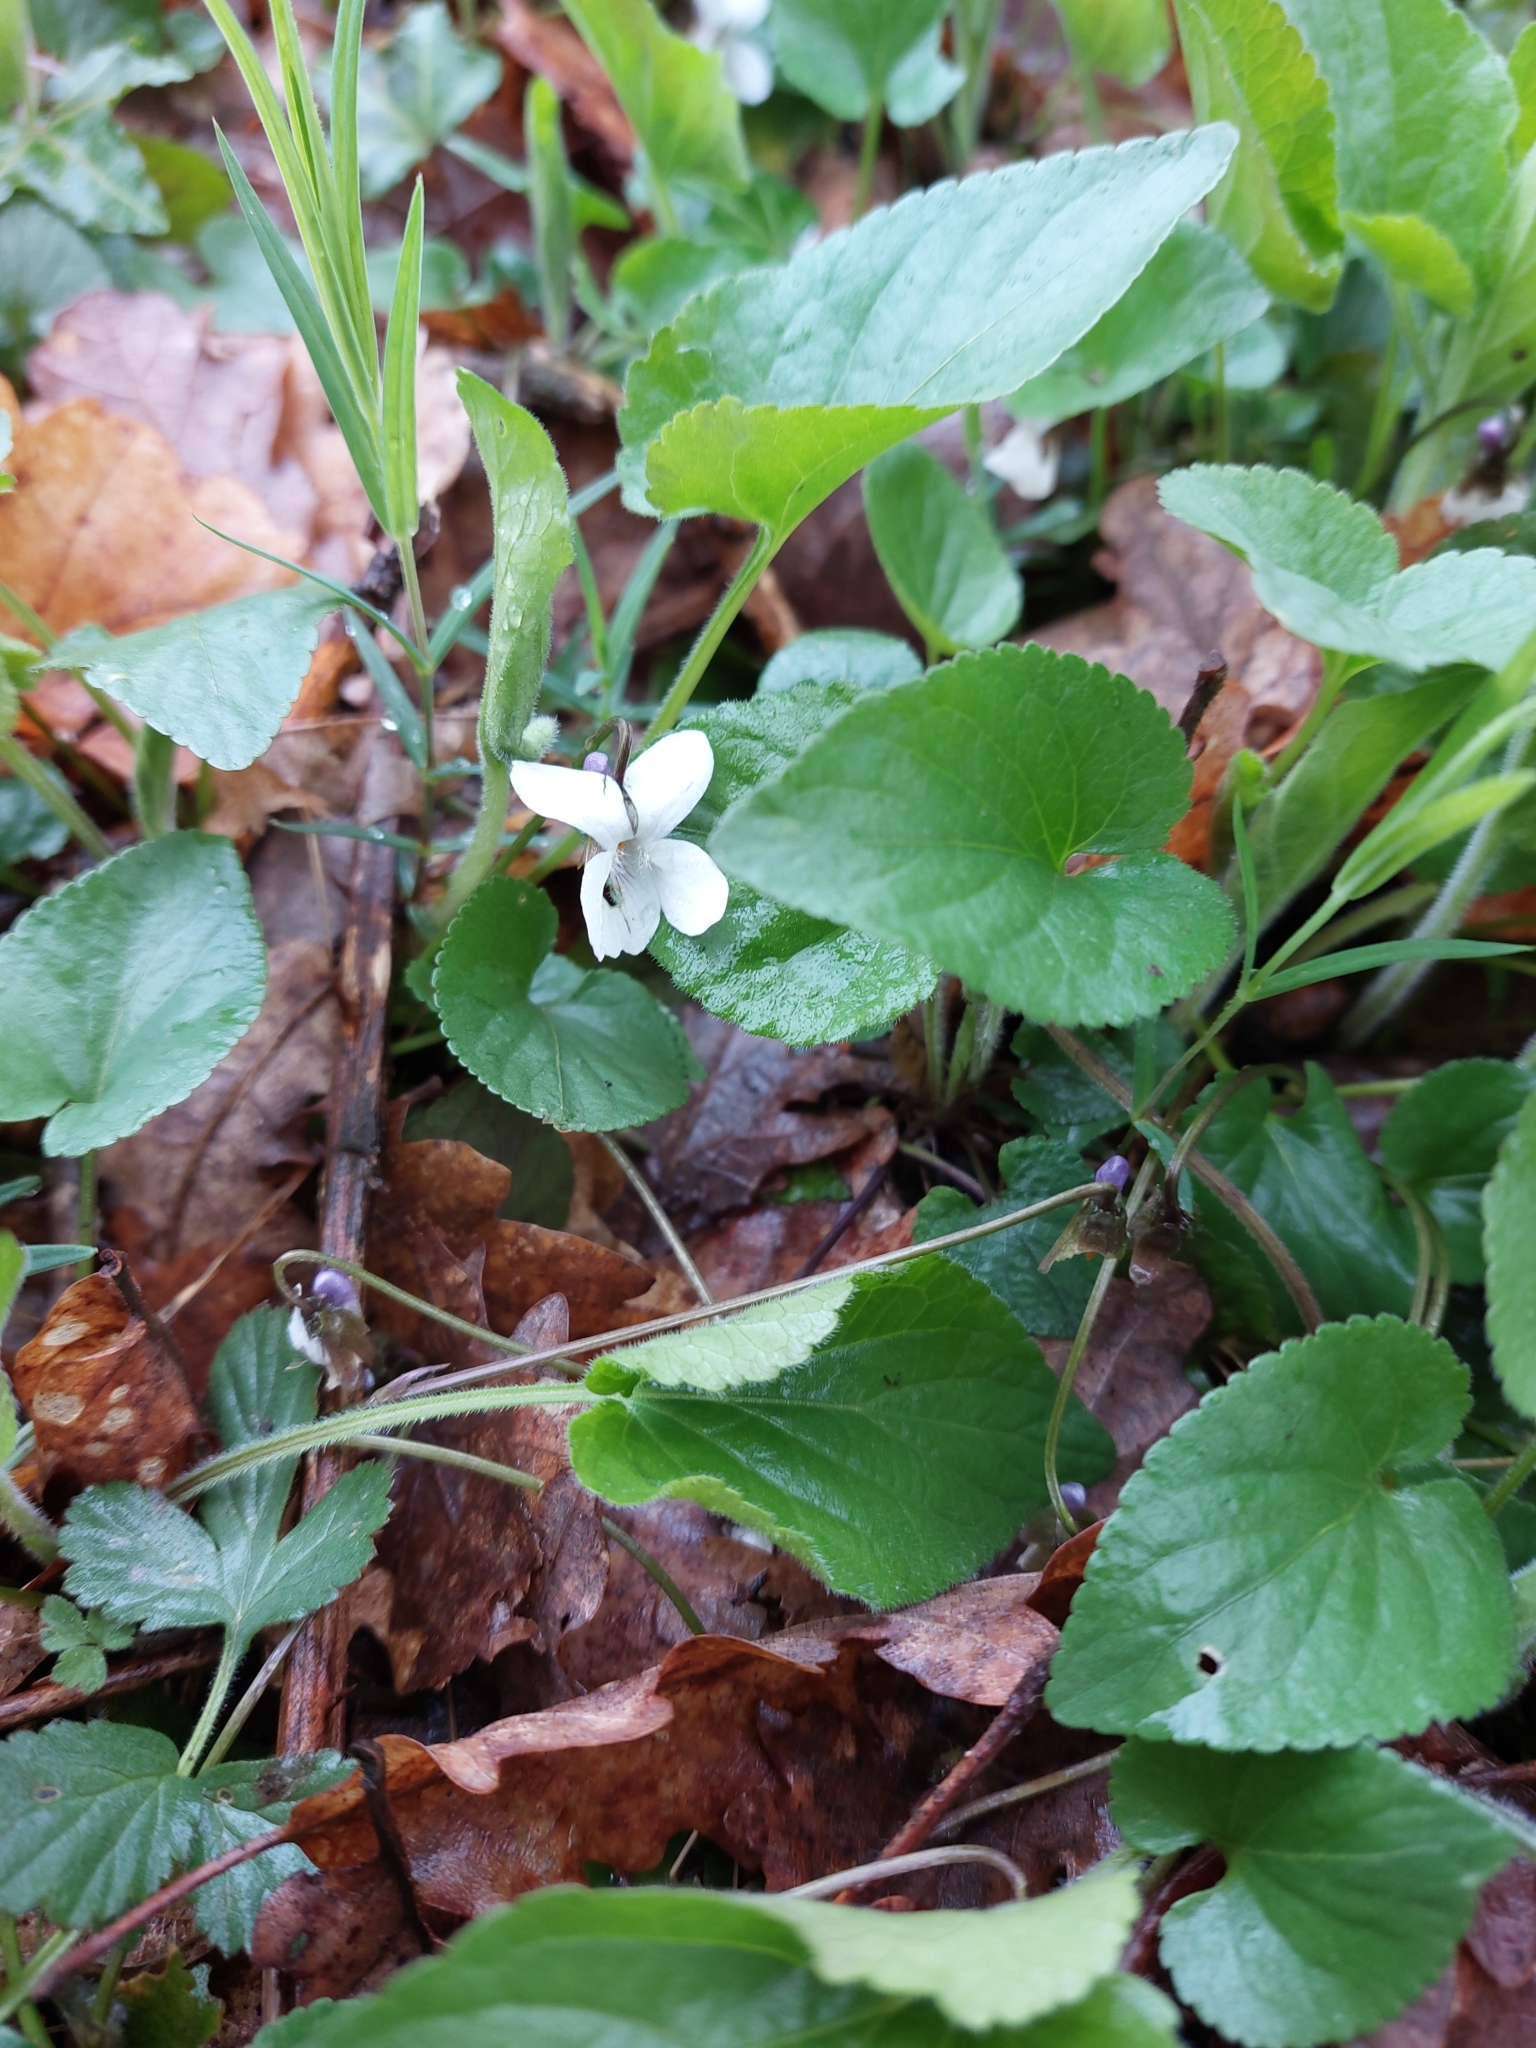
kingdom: Plantae
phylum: Tracheophyta
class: Magnoliopsida
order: Malpighiales
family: Violaceae
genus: Viola
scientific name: Viola alba
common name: White violet
